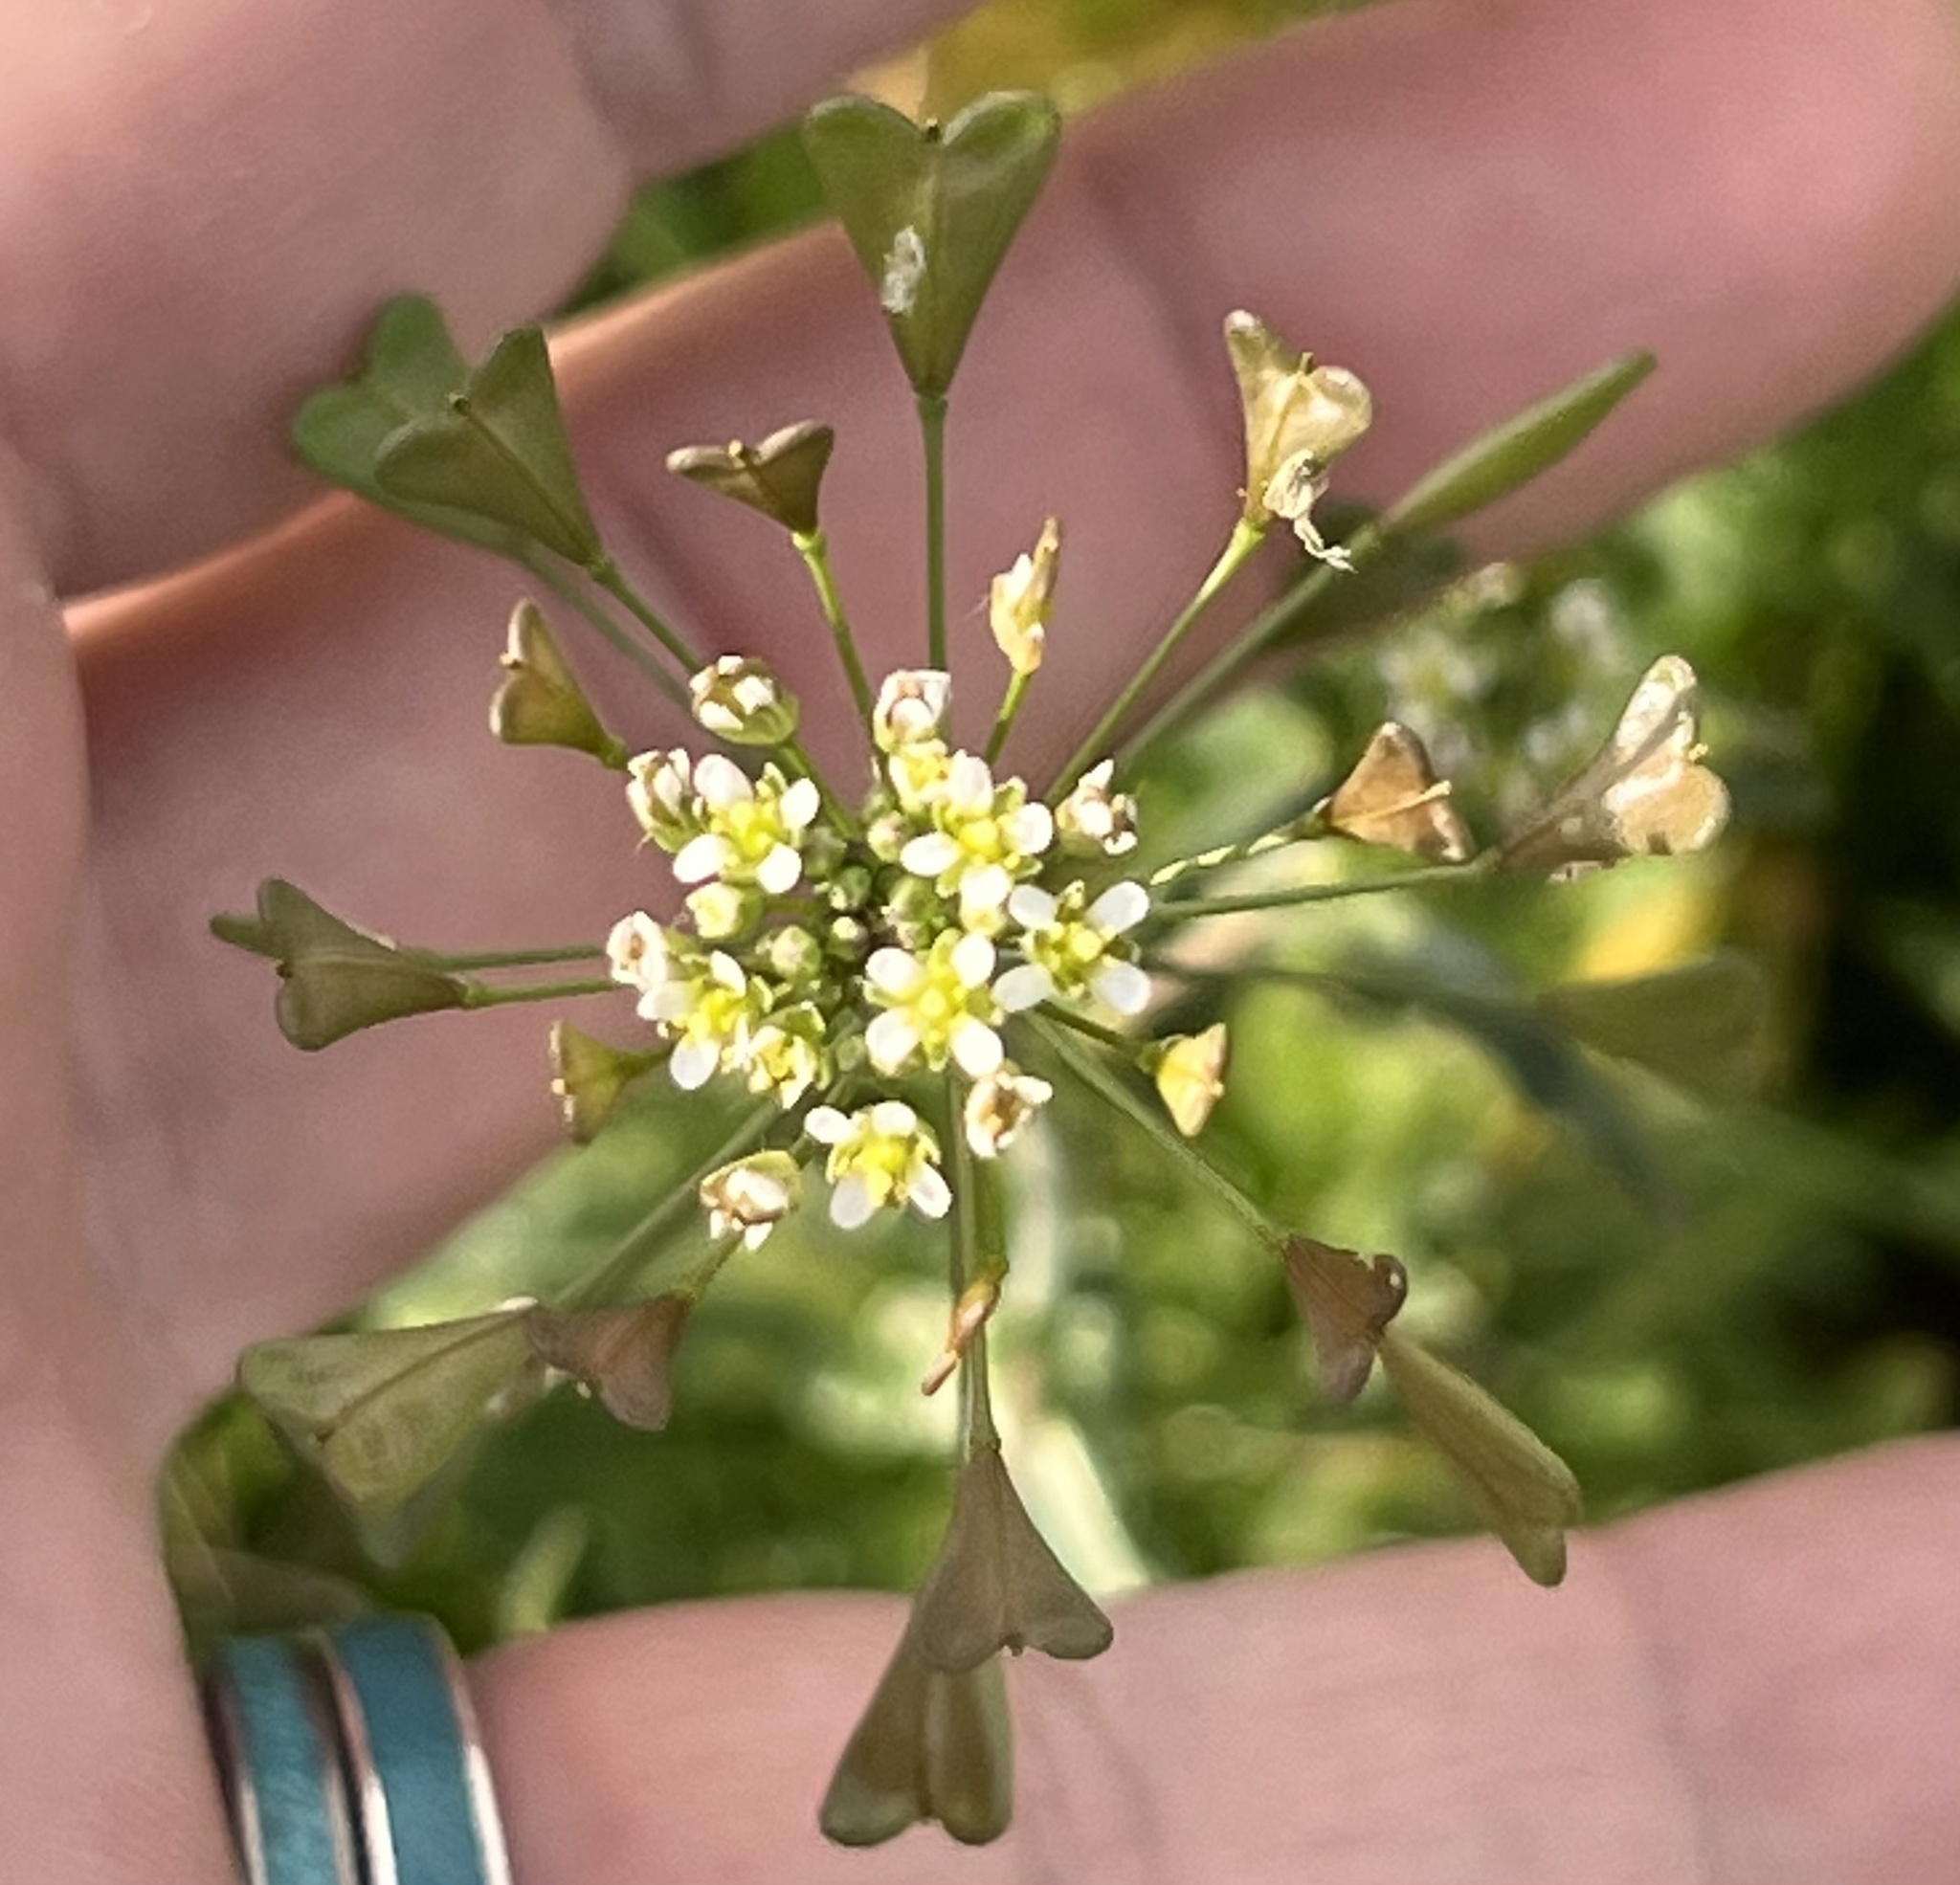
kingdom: Plantae
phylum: Tracheophyta
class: Magnoliopsida
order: Brassicales
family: Brassicaceae
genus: Capsella
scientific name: Capsella bursa-pastoris
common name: Shepherd's purse
